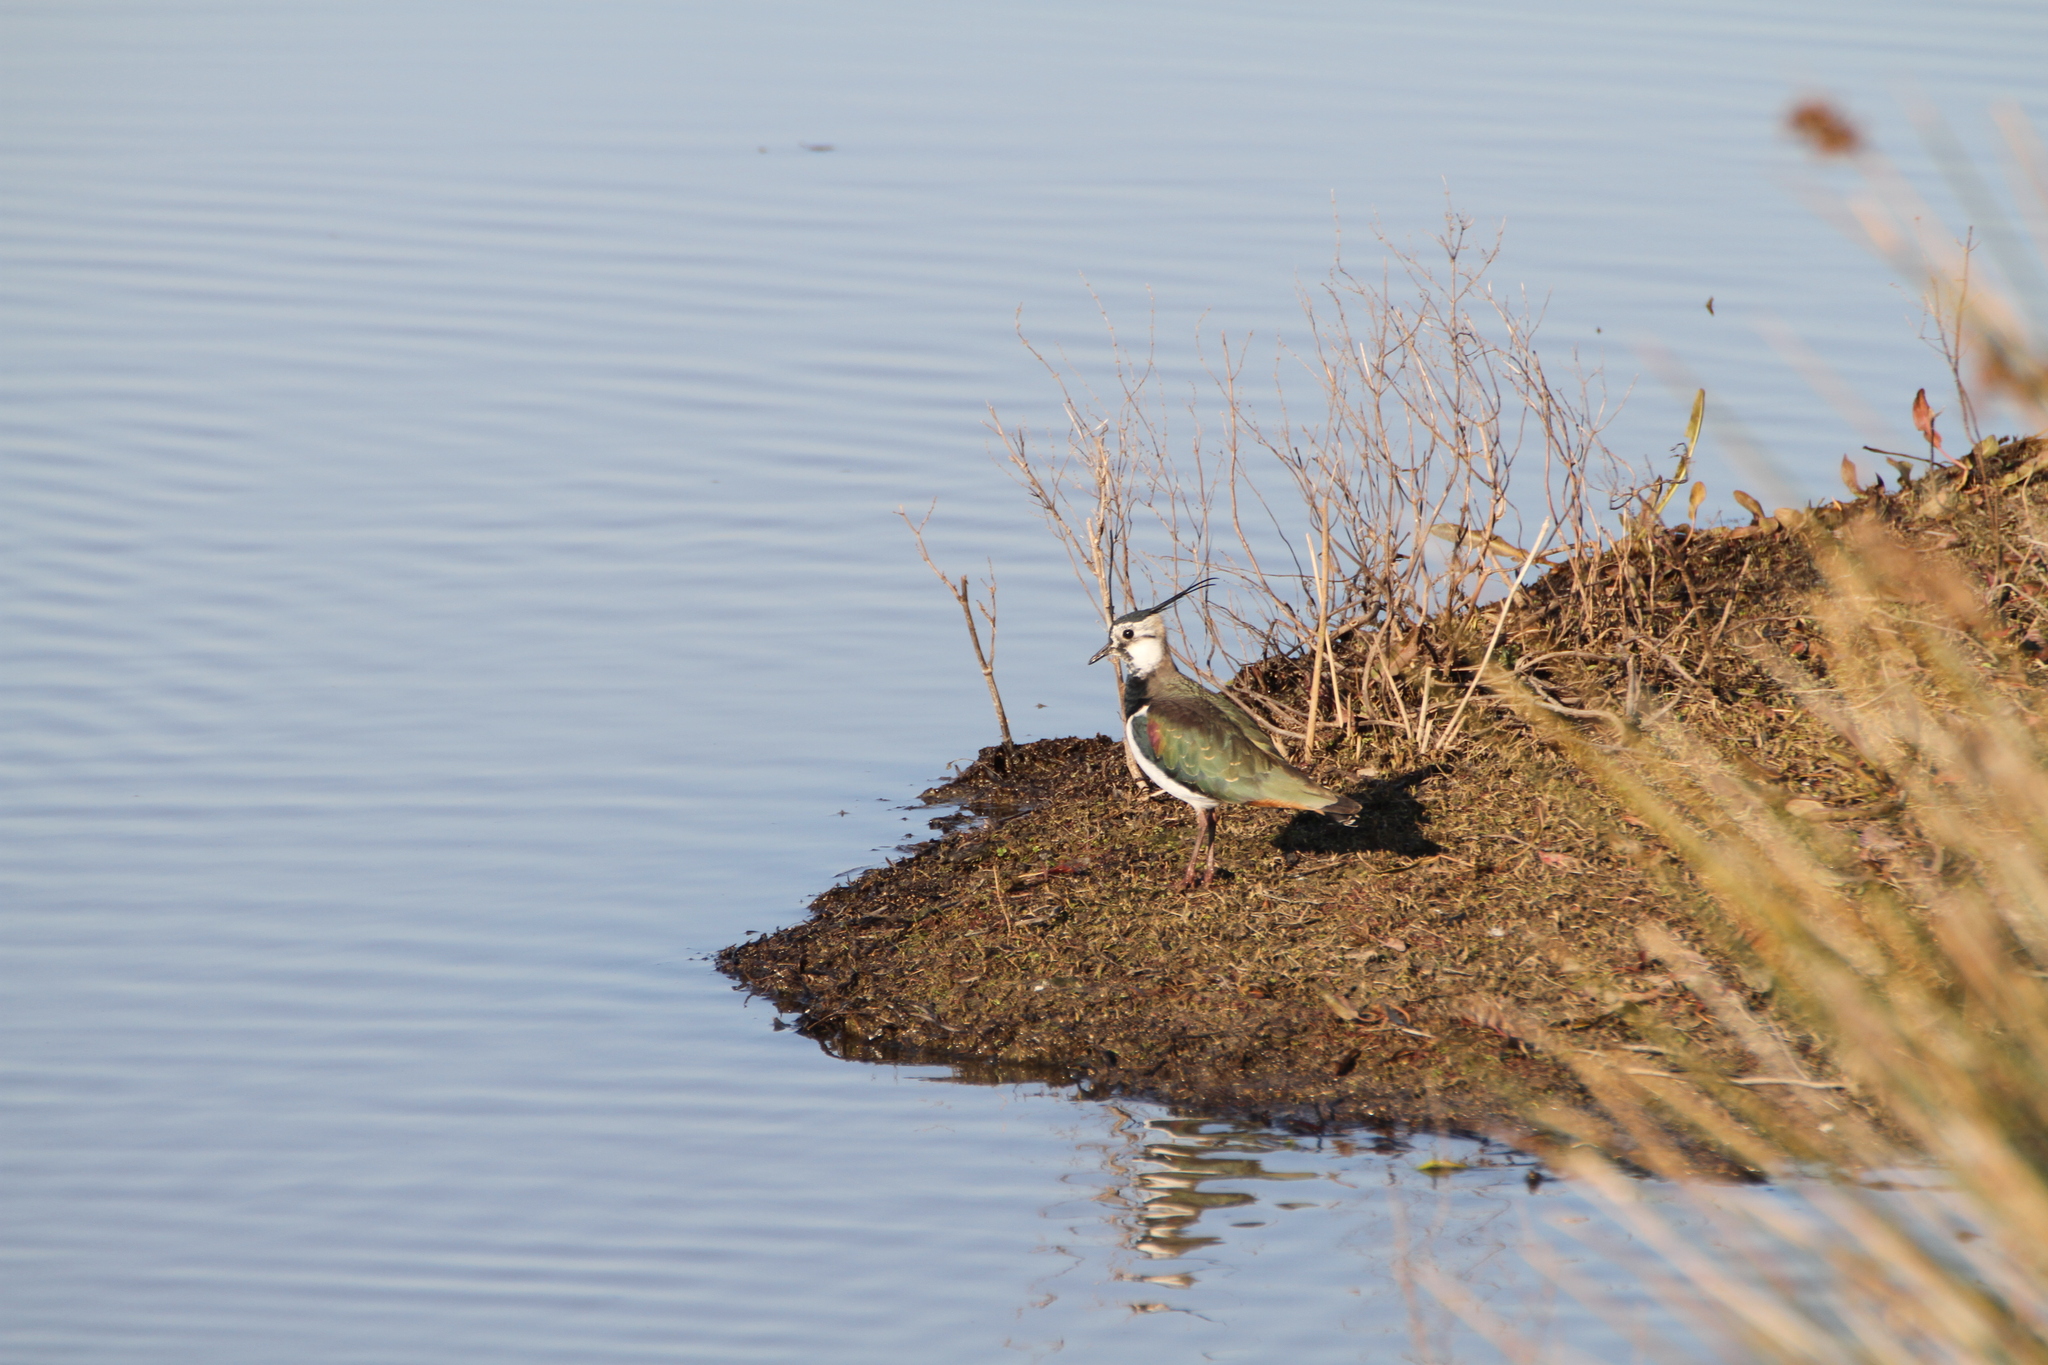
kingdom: Animalia
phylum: Chordata
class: Aves
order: Charadriiformes
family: Charadriidae
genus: Vanellus
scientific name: Vanellus vanellus
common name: Northern lapwing
